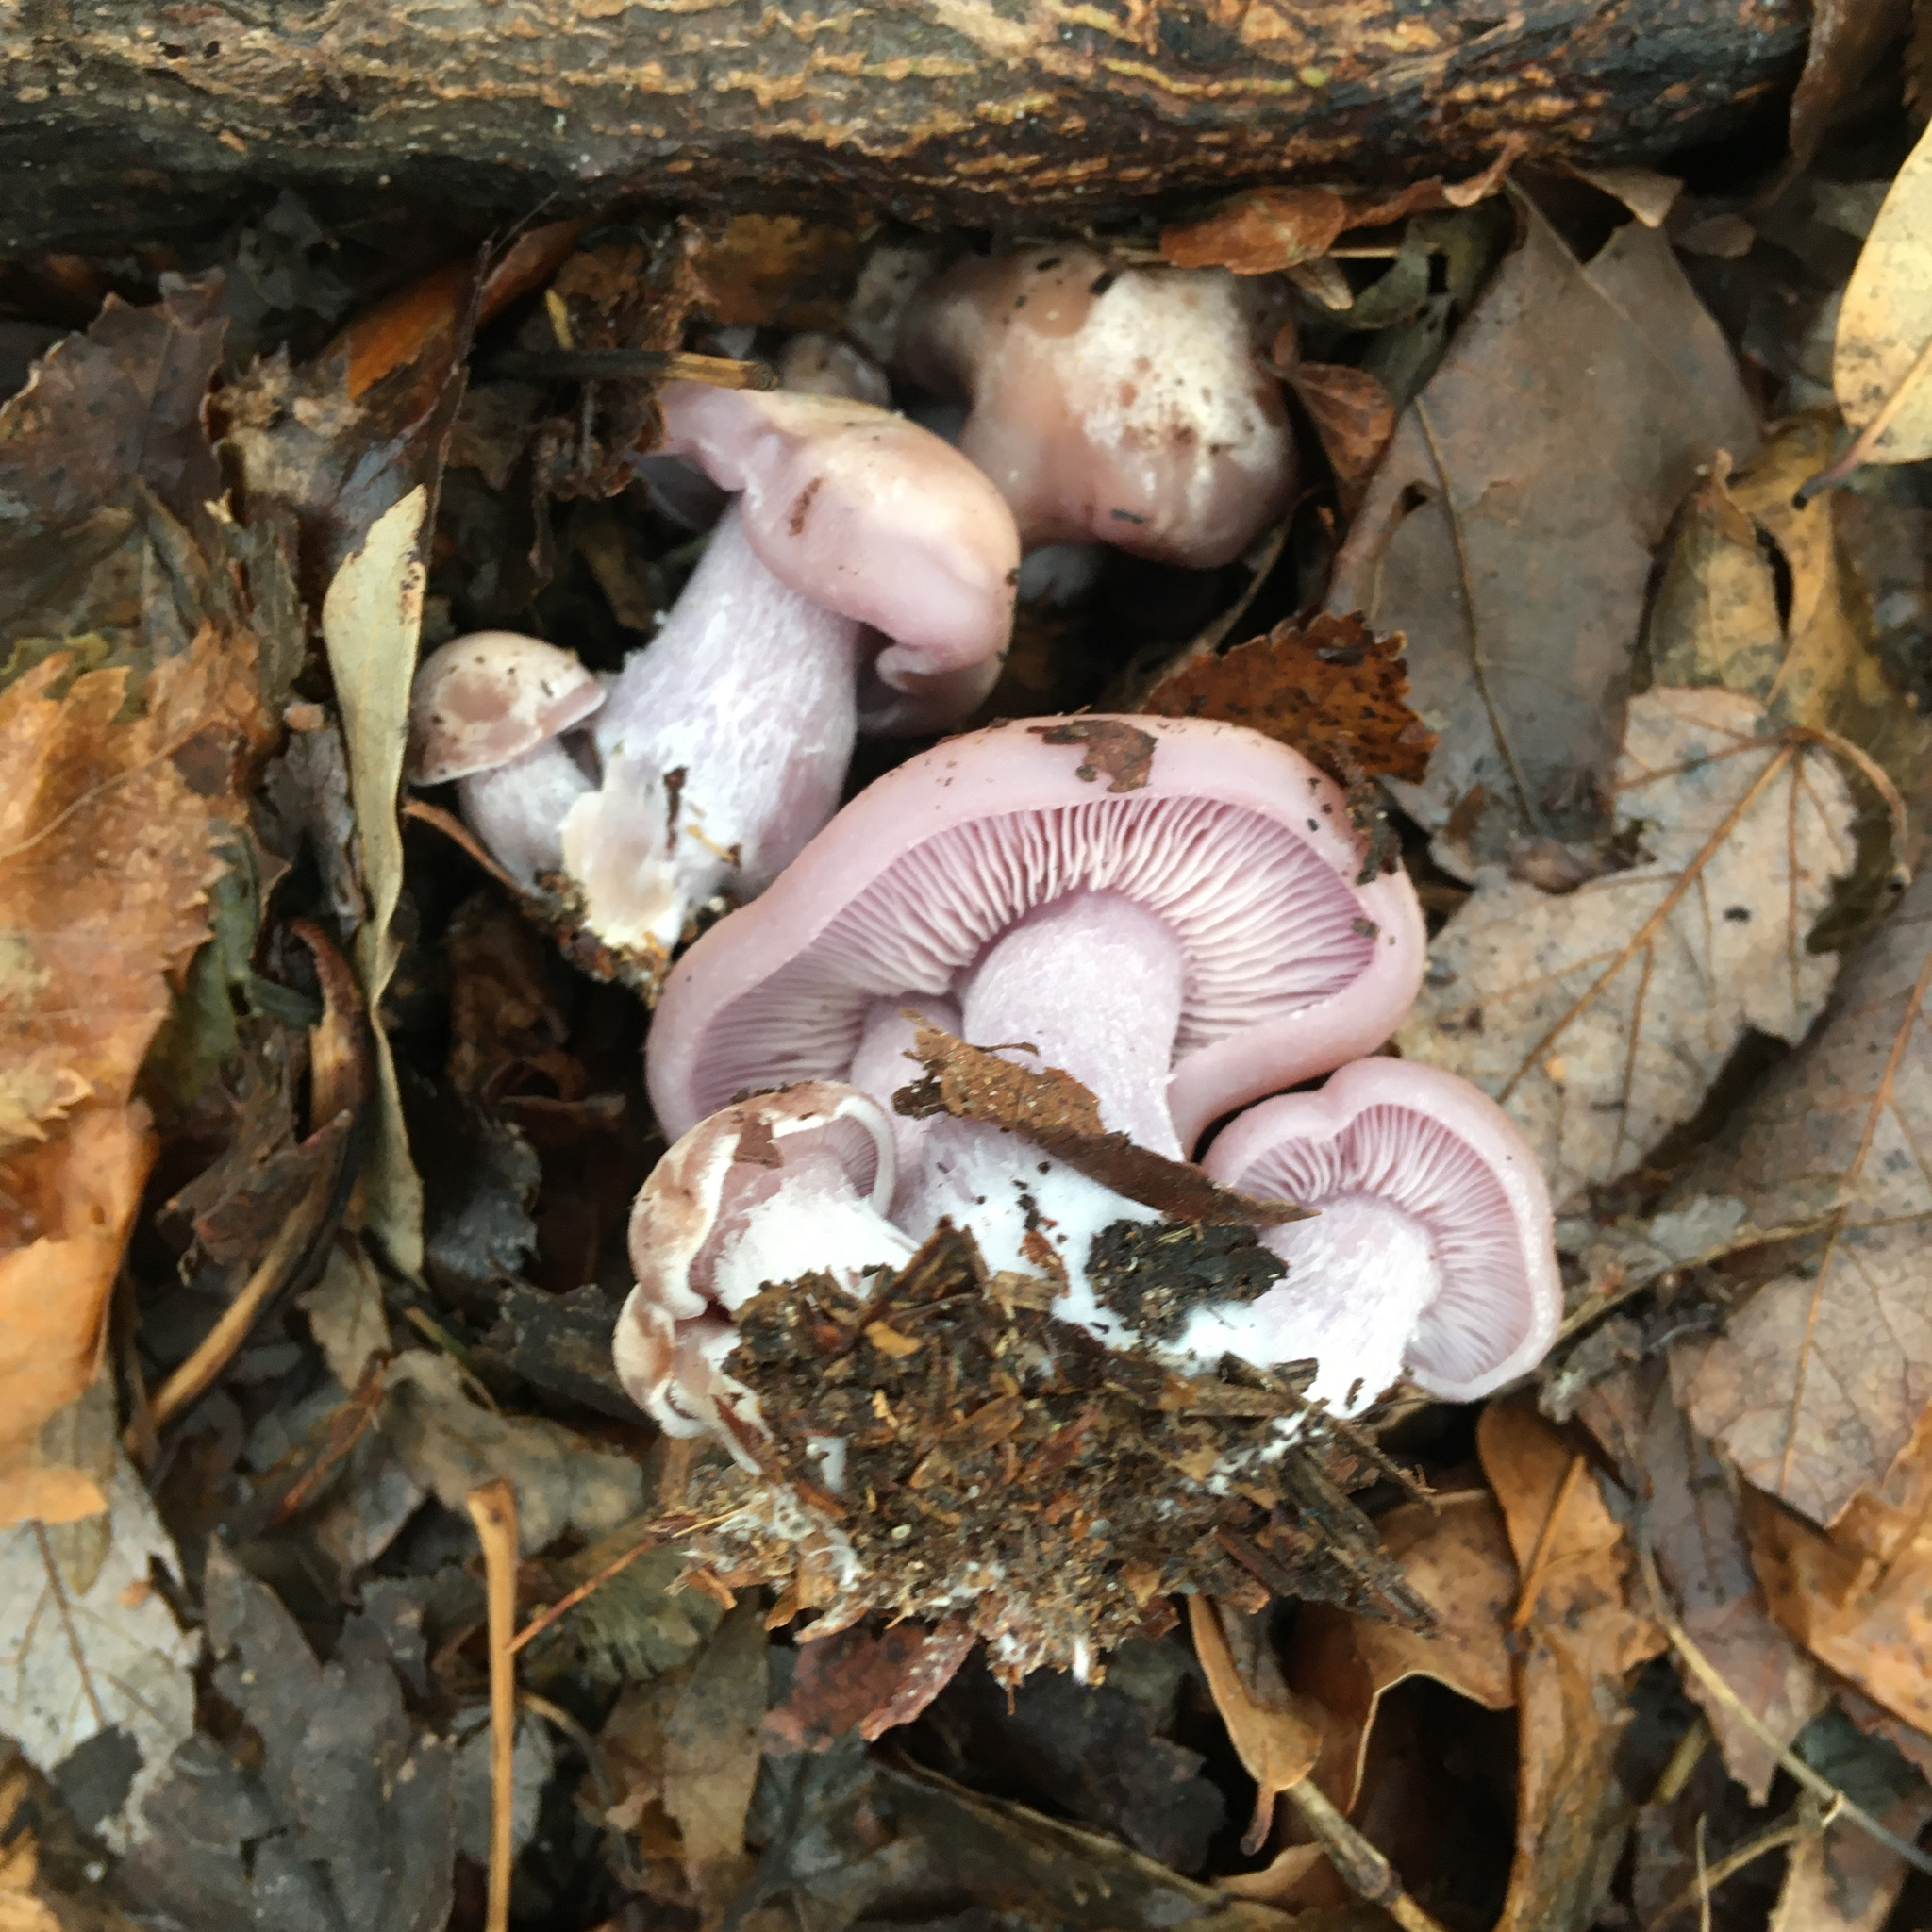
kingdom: Fungi
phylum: Basidiomycota
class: Agaricomycetes
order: Agaricales
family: Tricholomataceae
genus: Collybia
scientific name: Collybia
